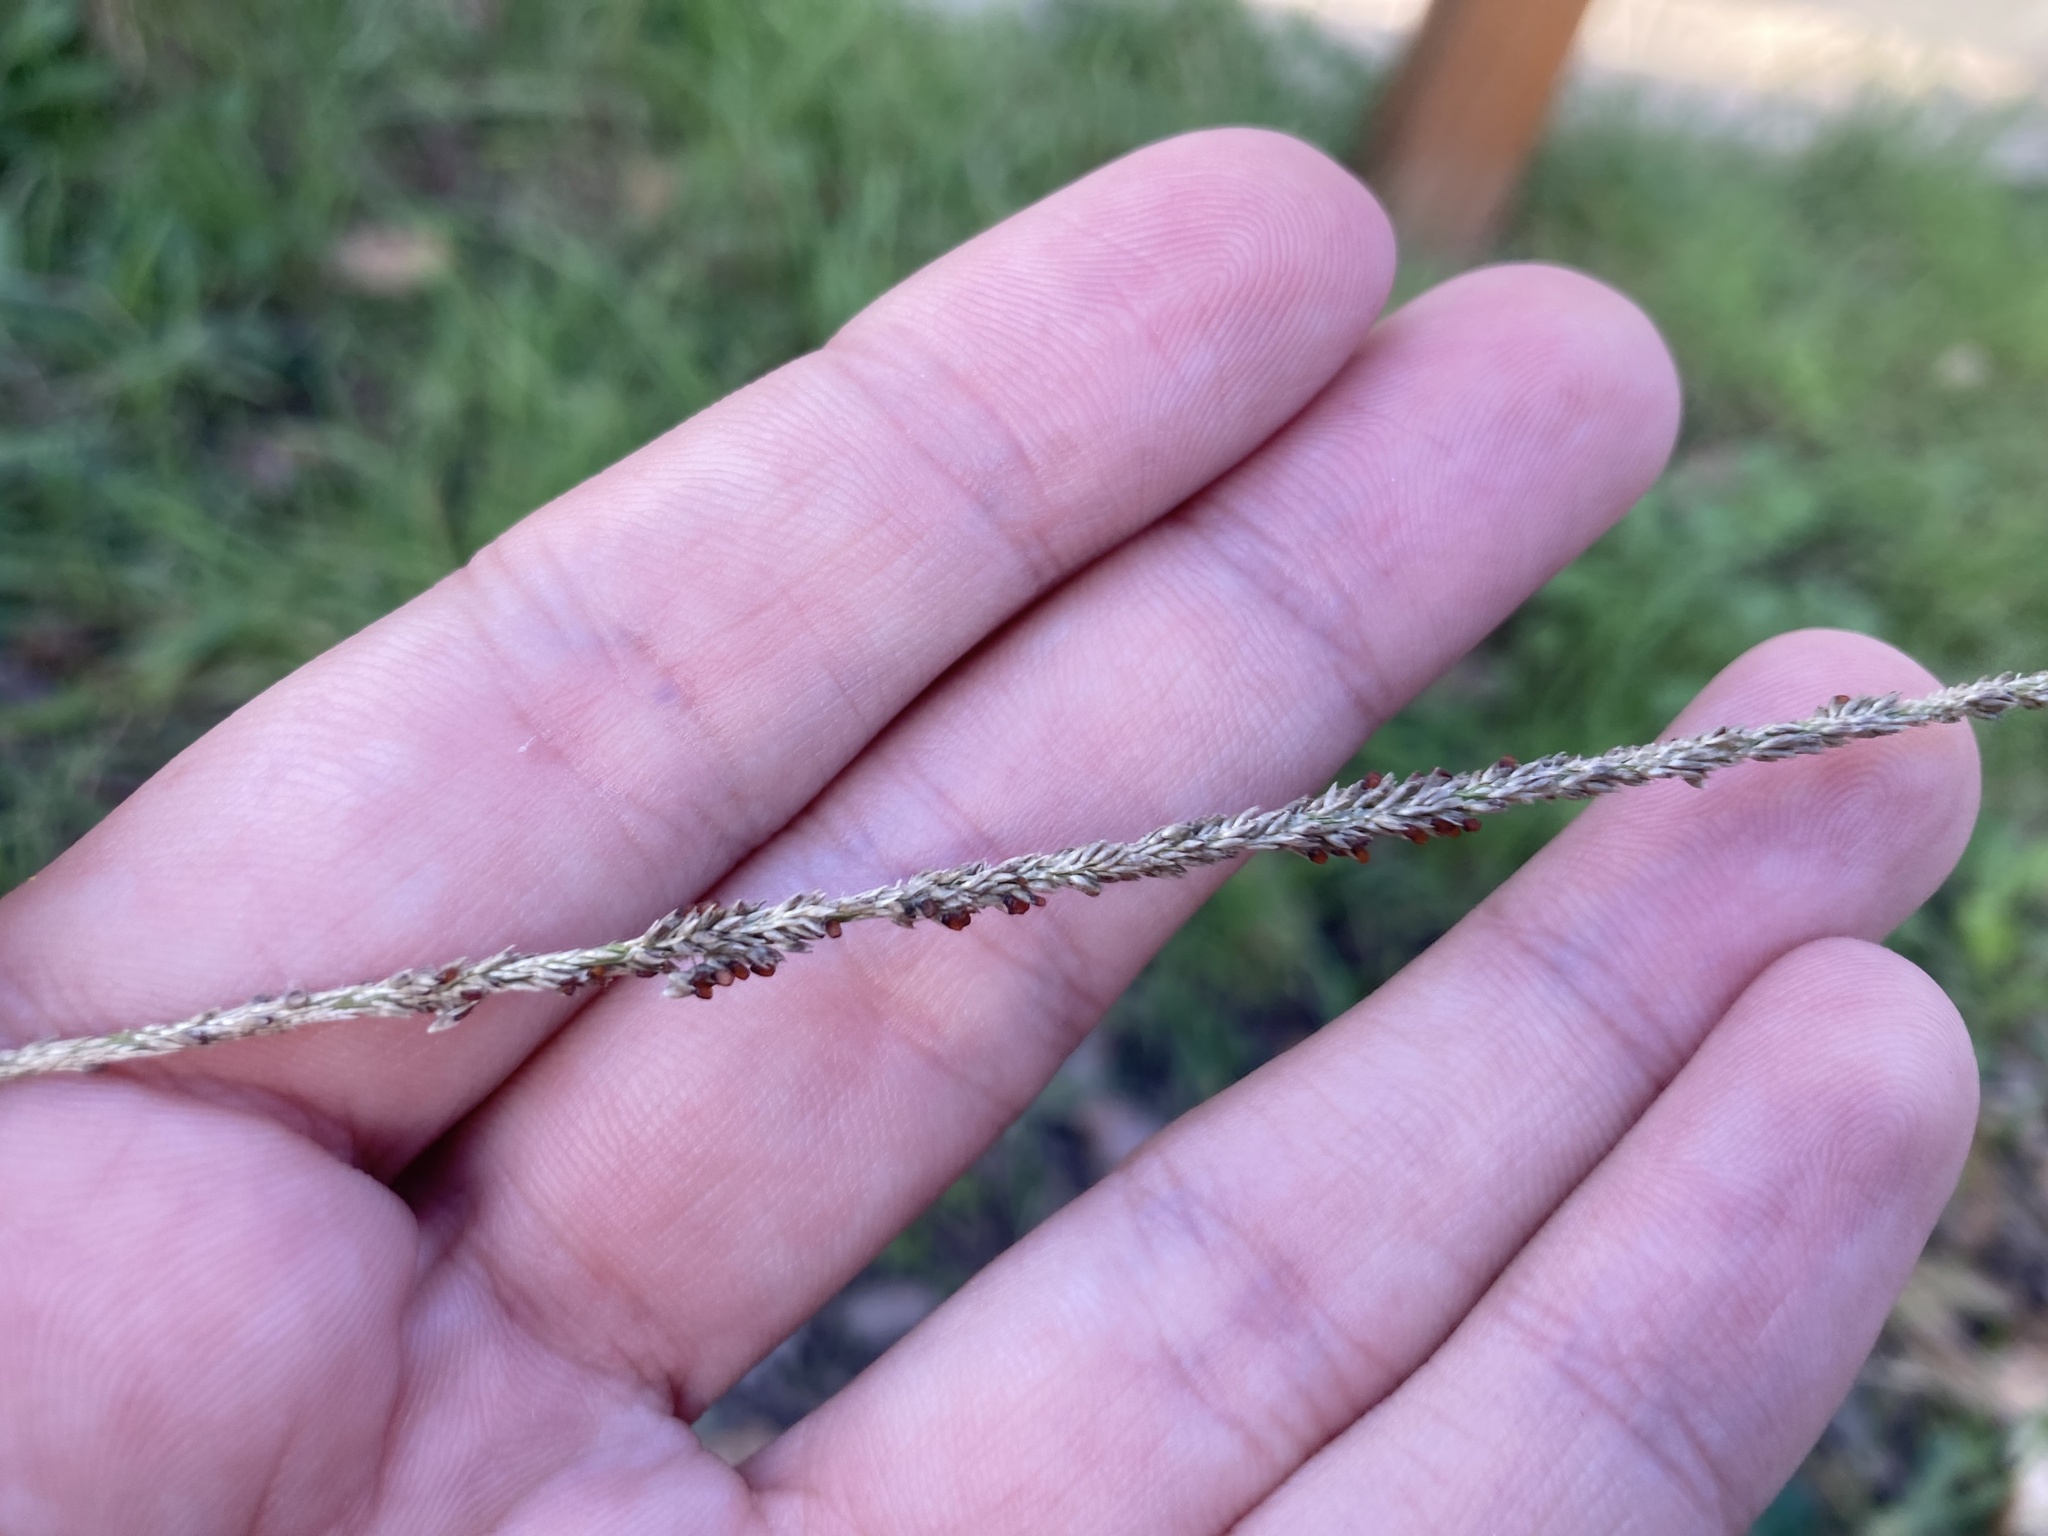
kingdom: Plantae
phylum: Tracheophyta
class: Liliopsida
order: Poales
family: Poaceae
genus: Sporobolus
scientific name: Sporobolus indicus
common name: Smut grass
